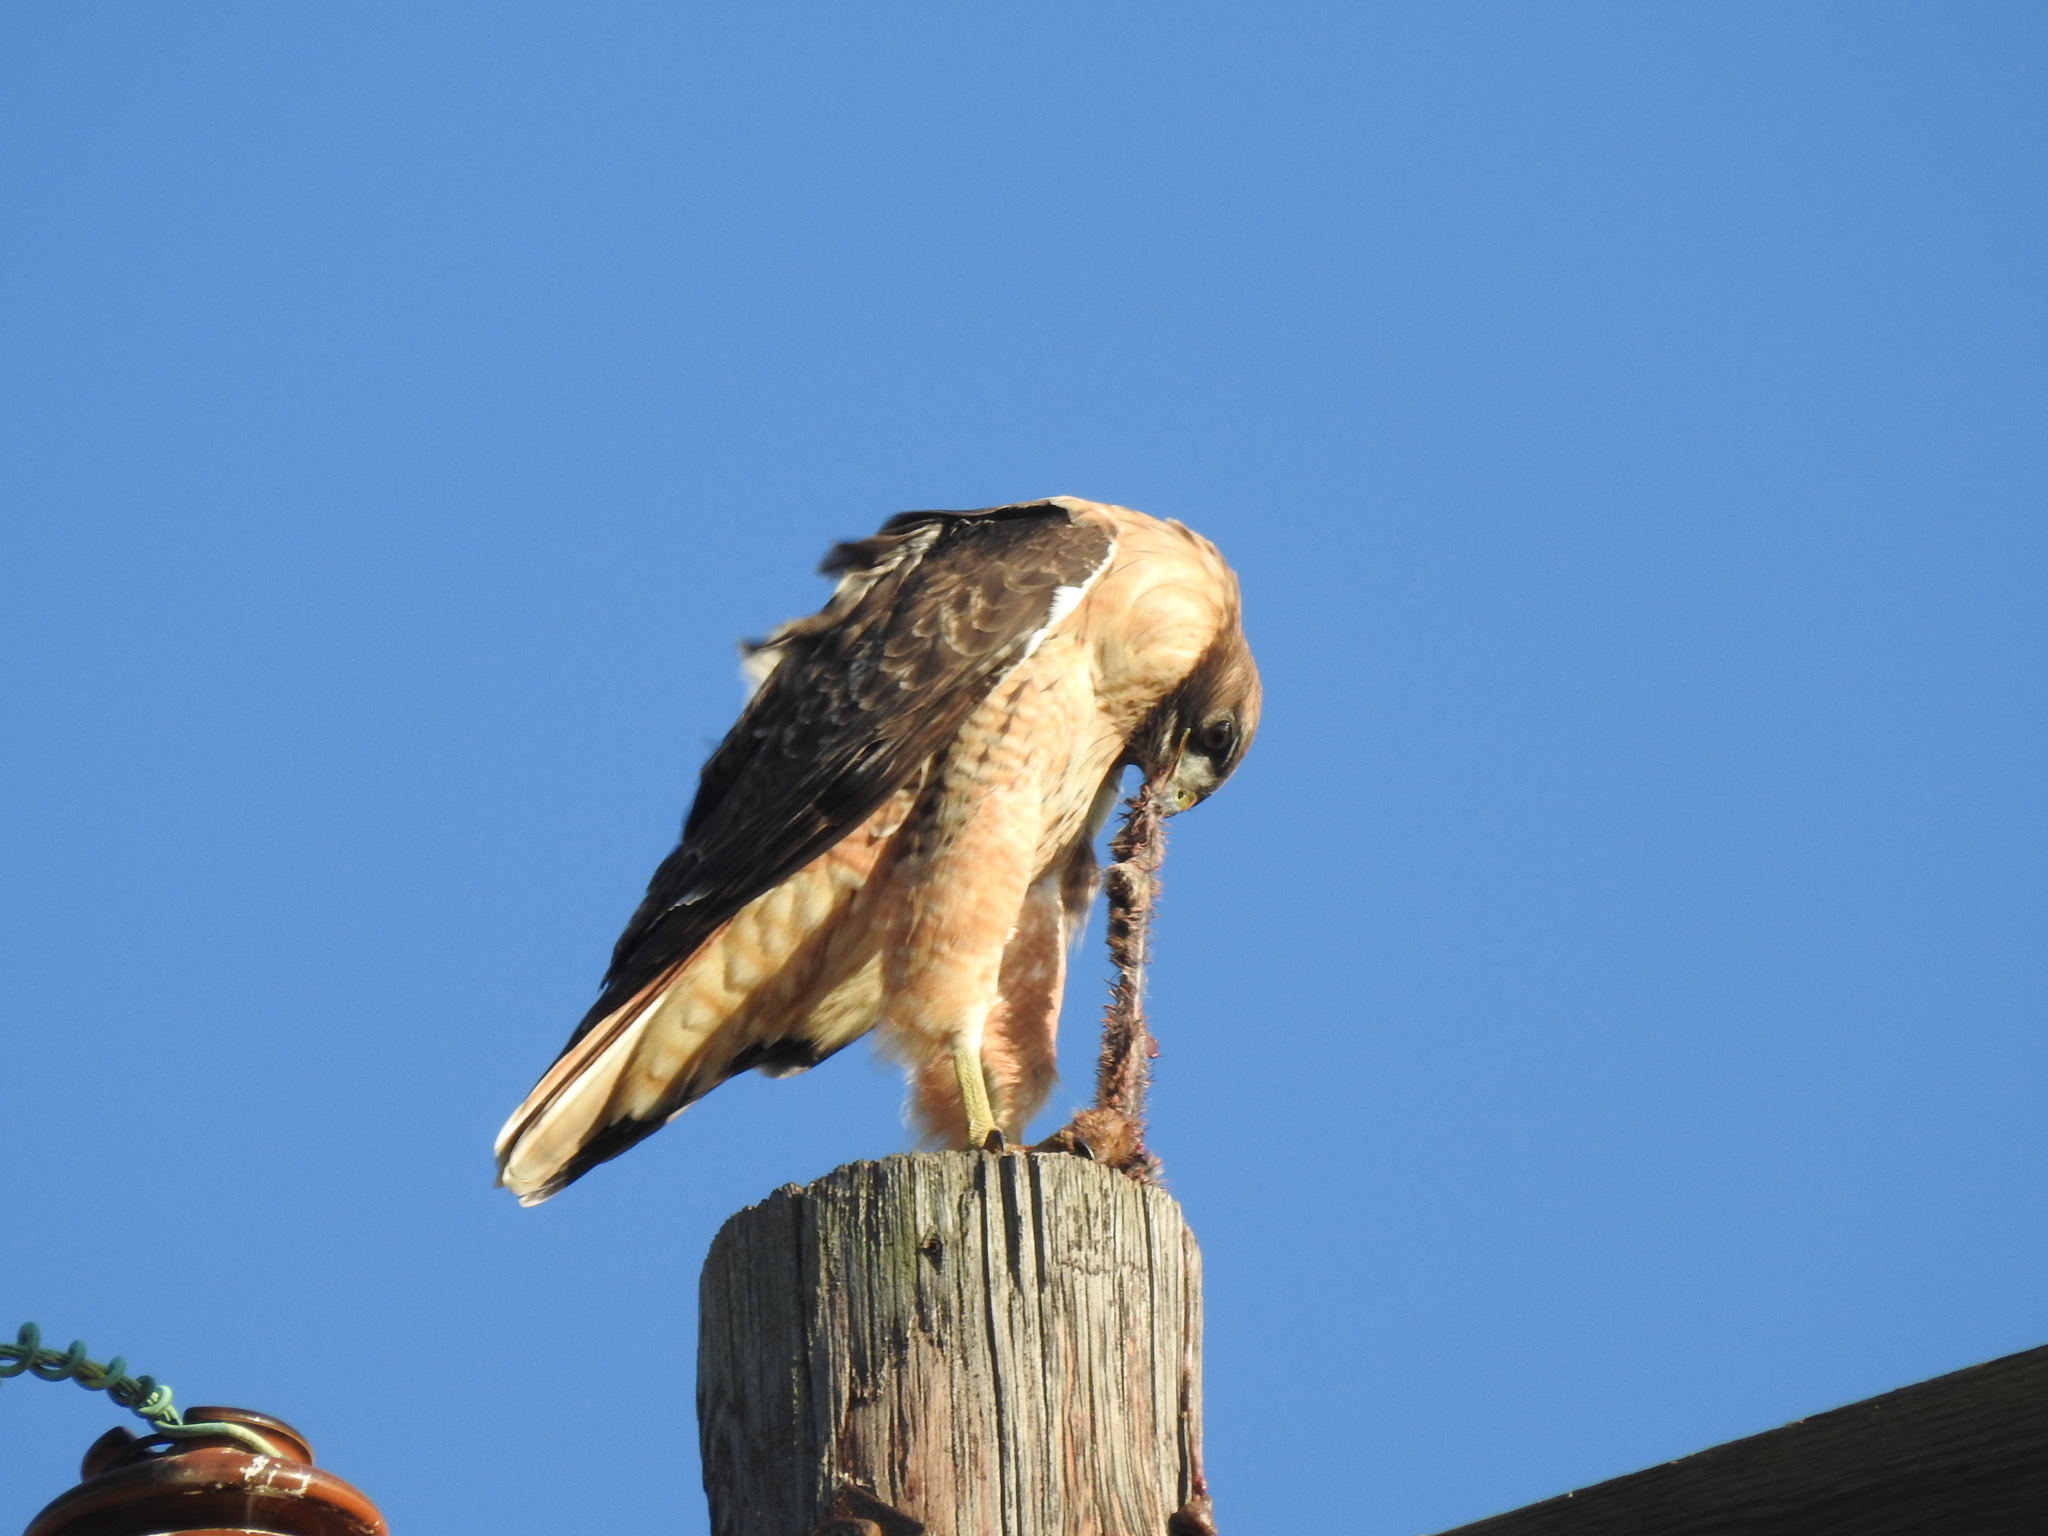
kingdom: Animalia
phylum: Chordata
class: Aves
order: Accipitriformes
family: Accipitridae
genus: Buteo
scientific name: Buteo jamaicensis
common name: Red-tailed hawk
